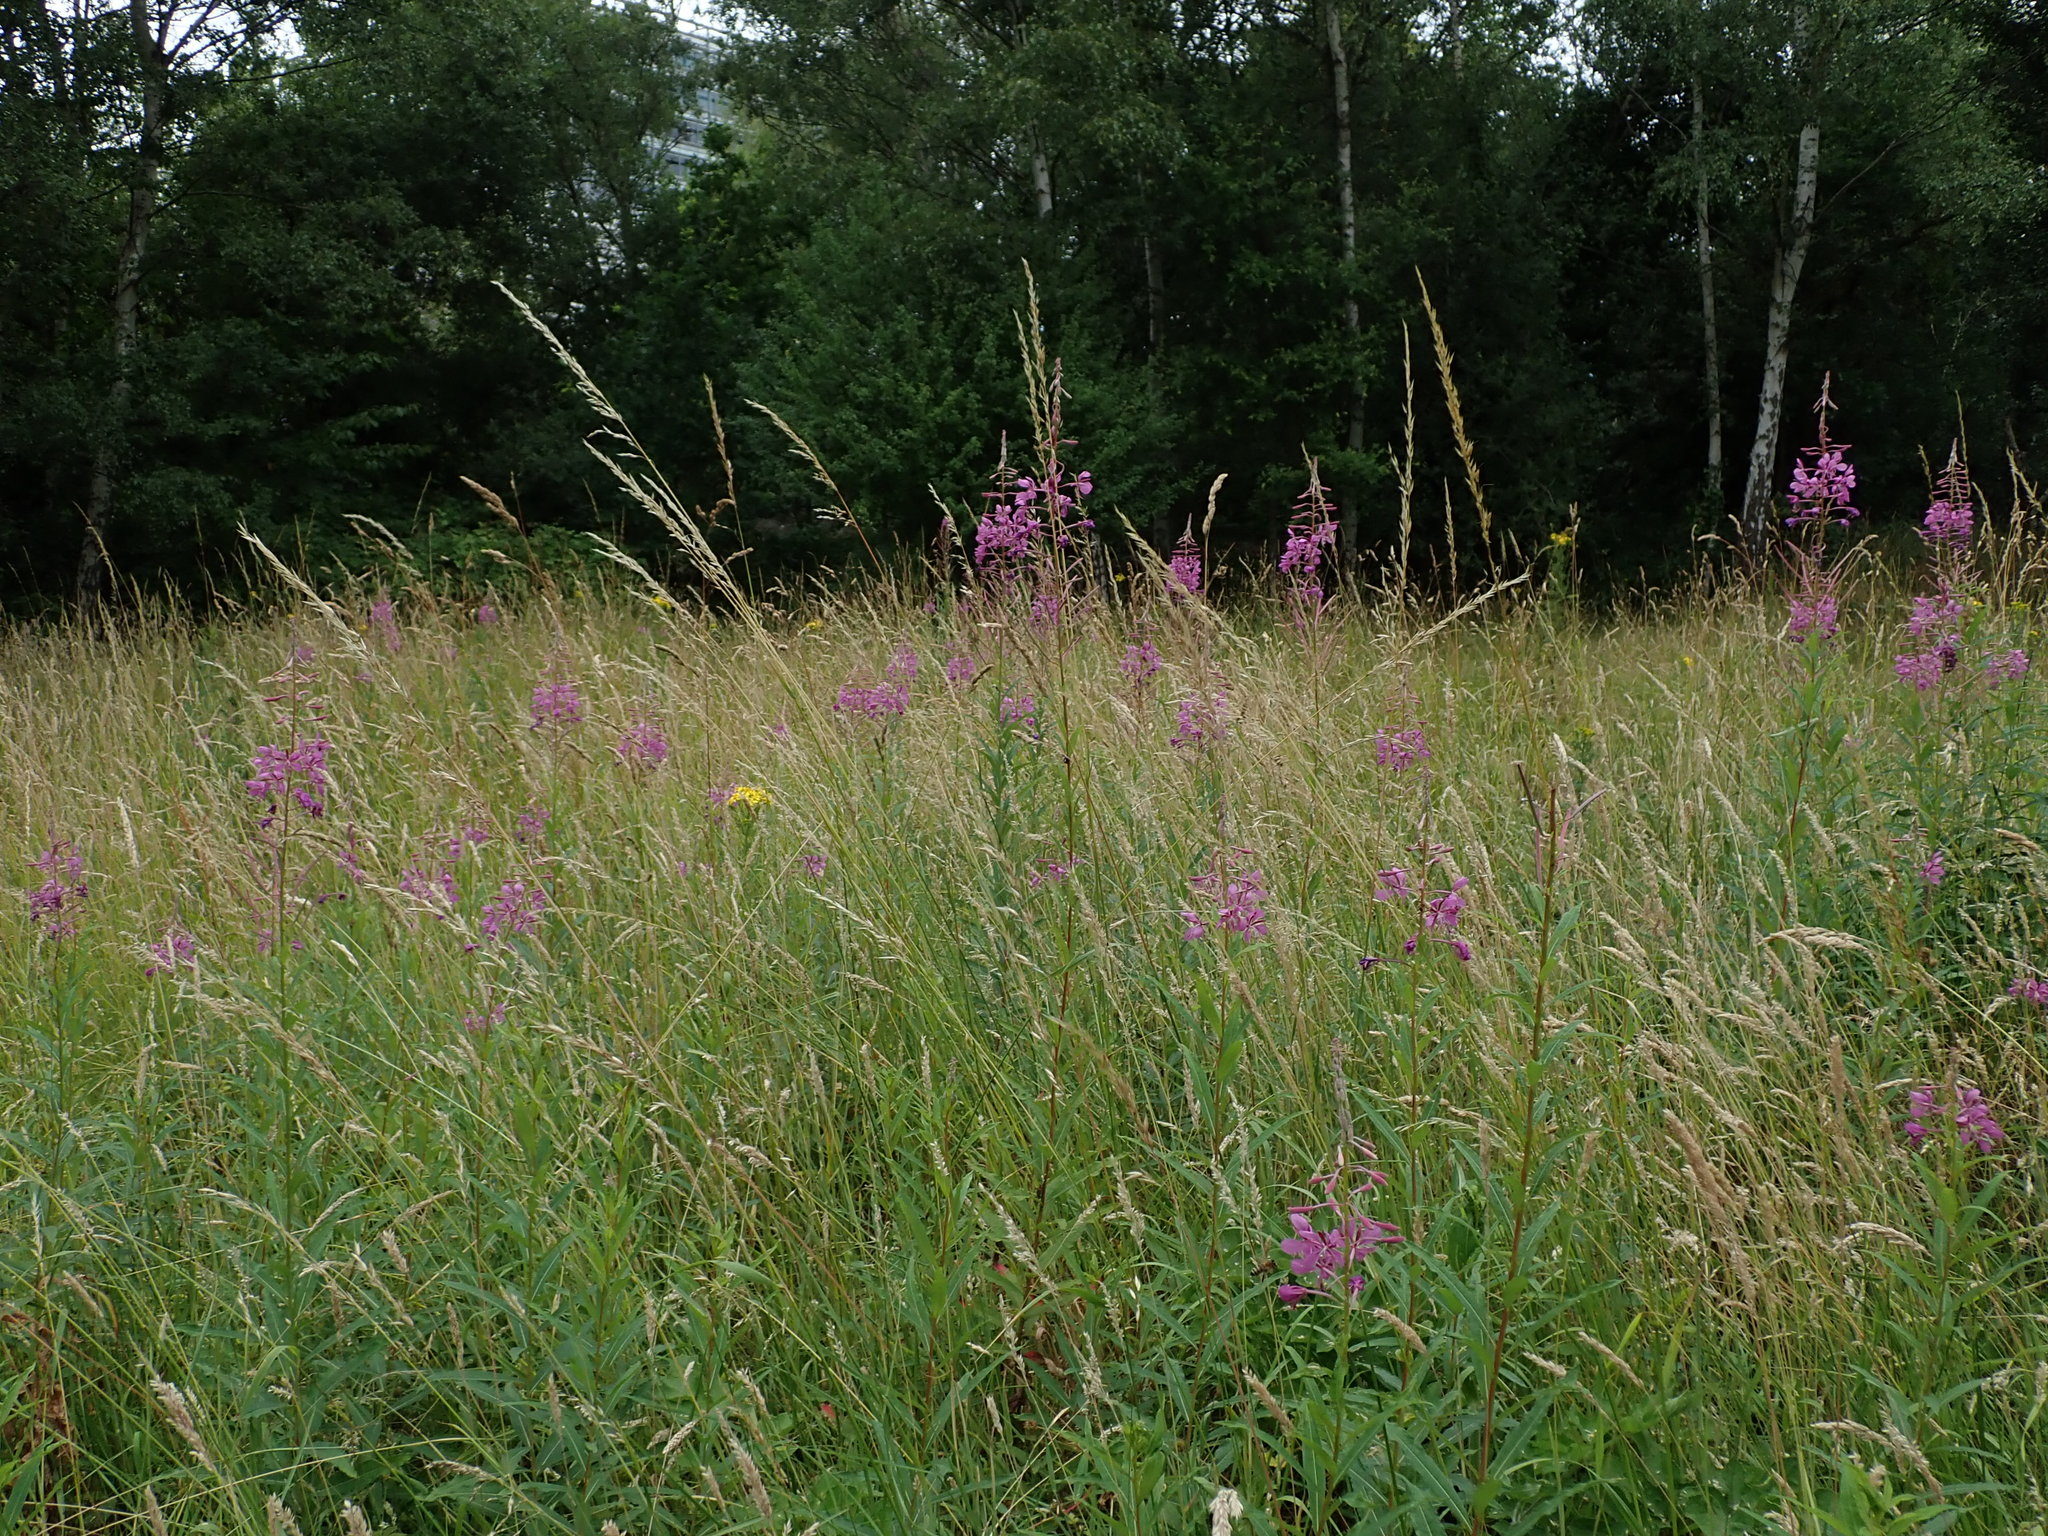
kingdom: Plantae
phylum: Tracheophyta
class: Magnoliopsida
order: Myrtales
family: Onagraceae
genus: Chamaenerion
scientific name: Chamaenerion angustifolium
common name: Fireweed
